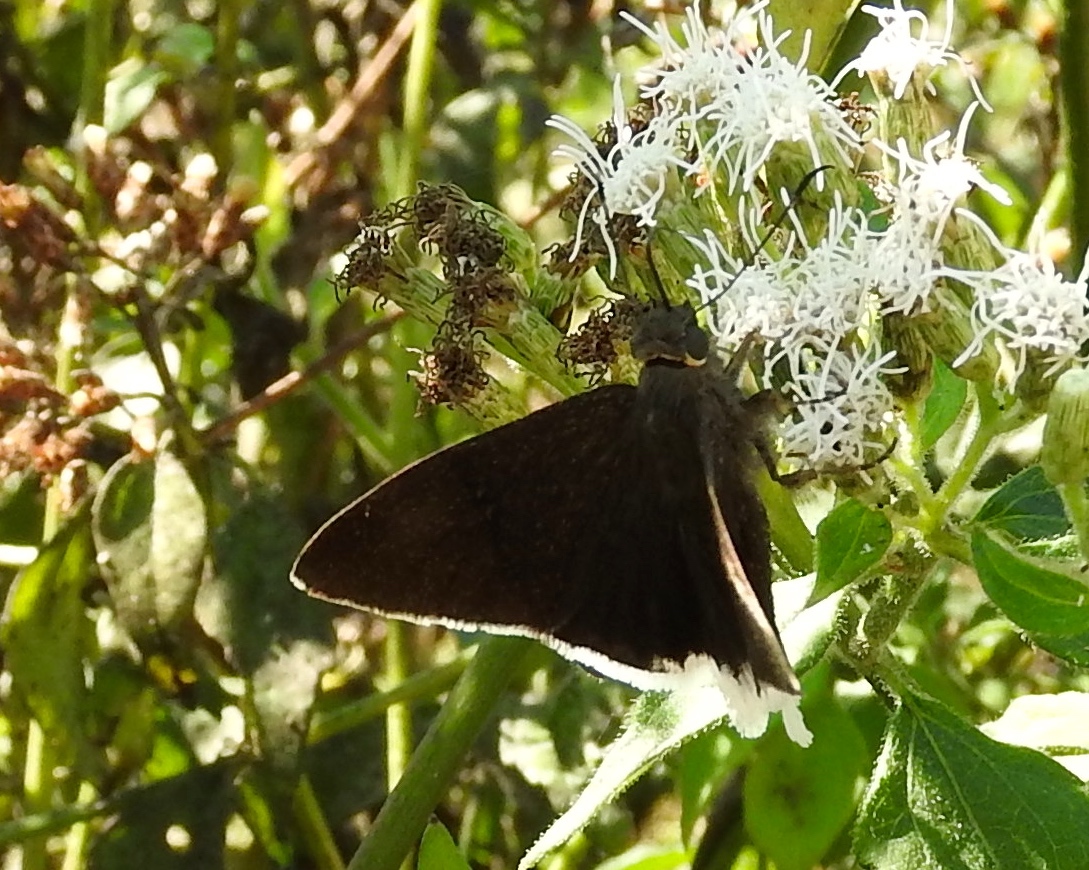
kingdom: Animalia
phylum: Arthropoda
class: Insecta
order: Lepidoptera
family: Hesperiidae
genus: Achalarus
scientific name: Achalarus
